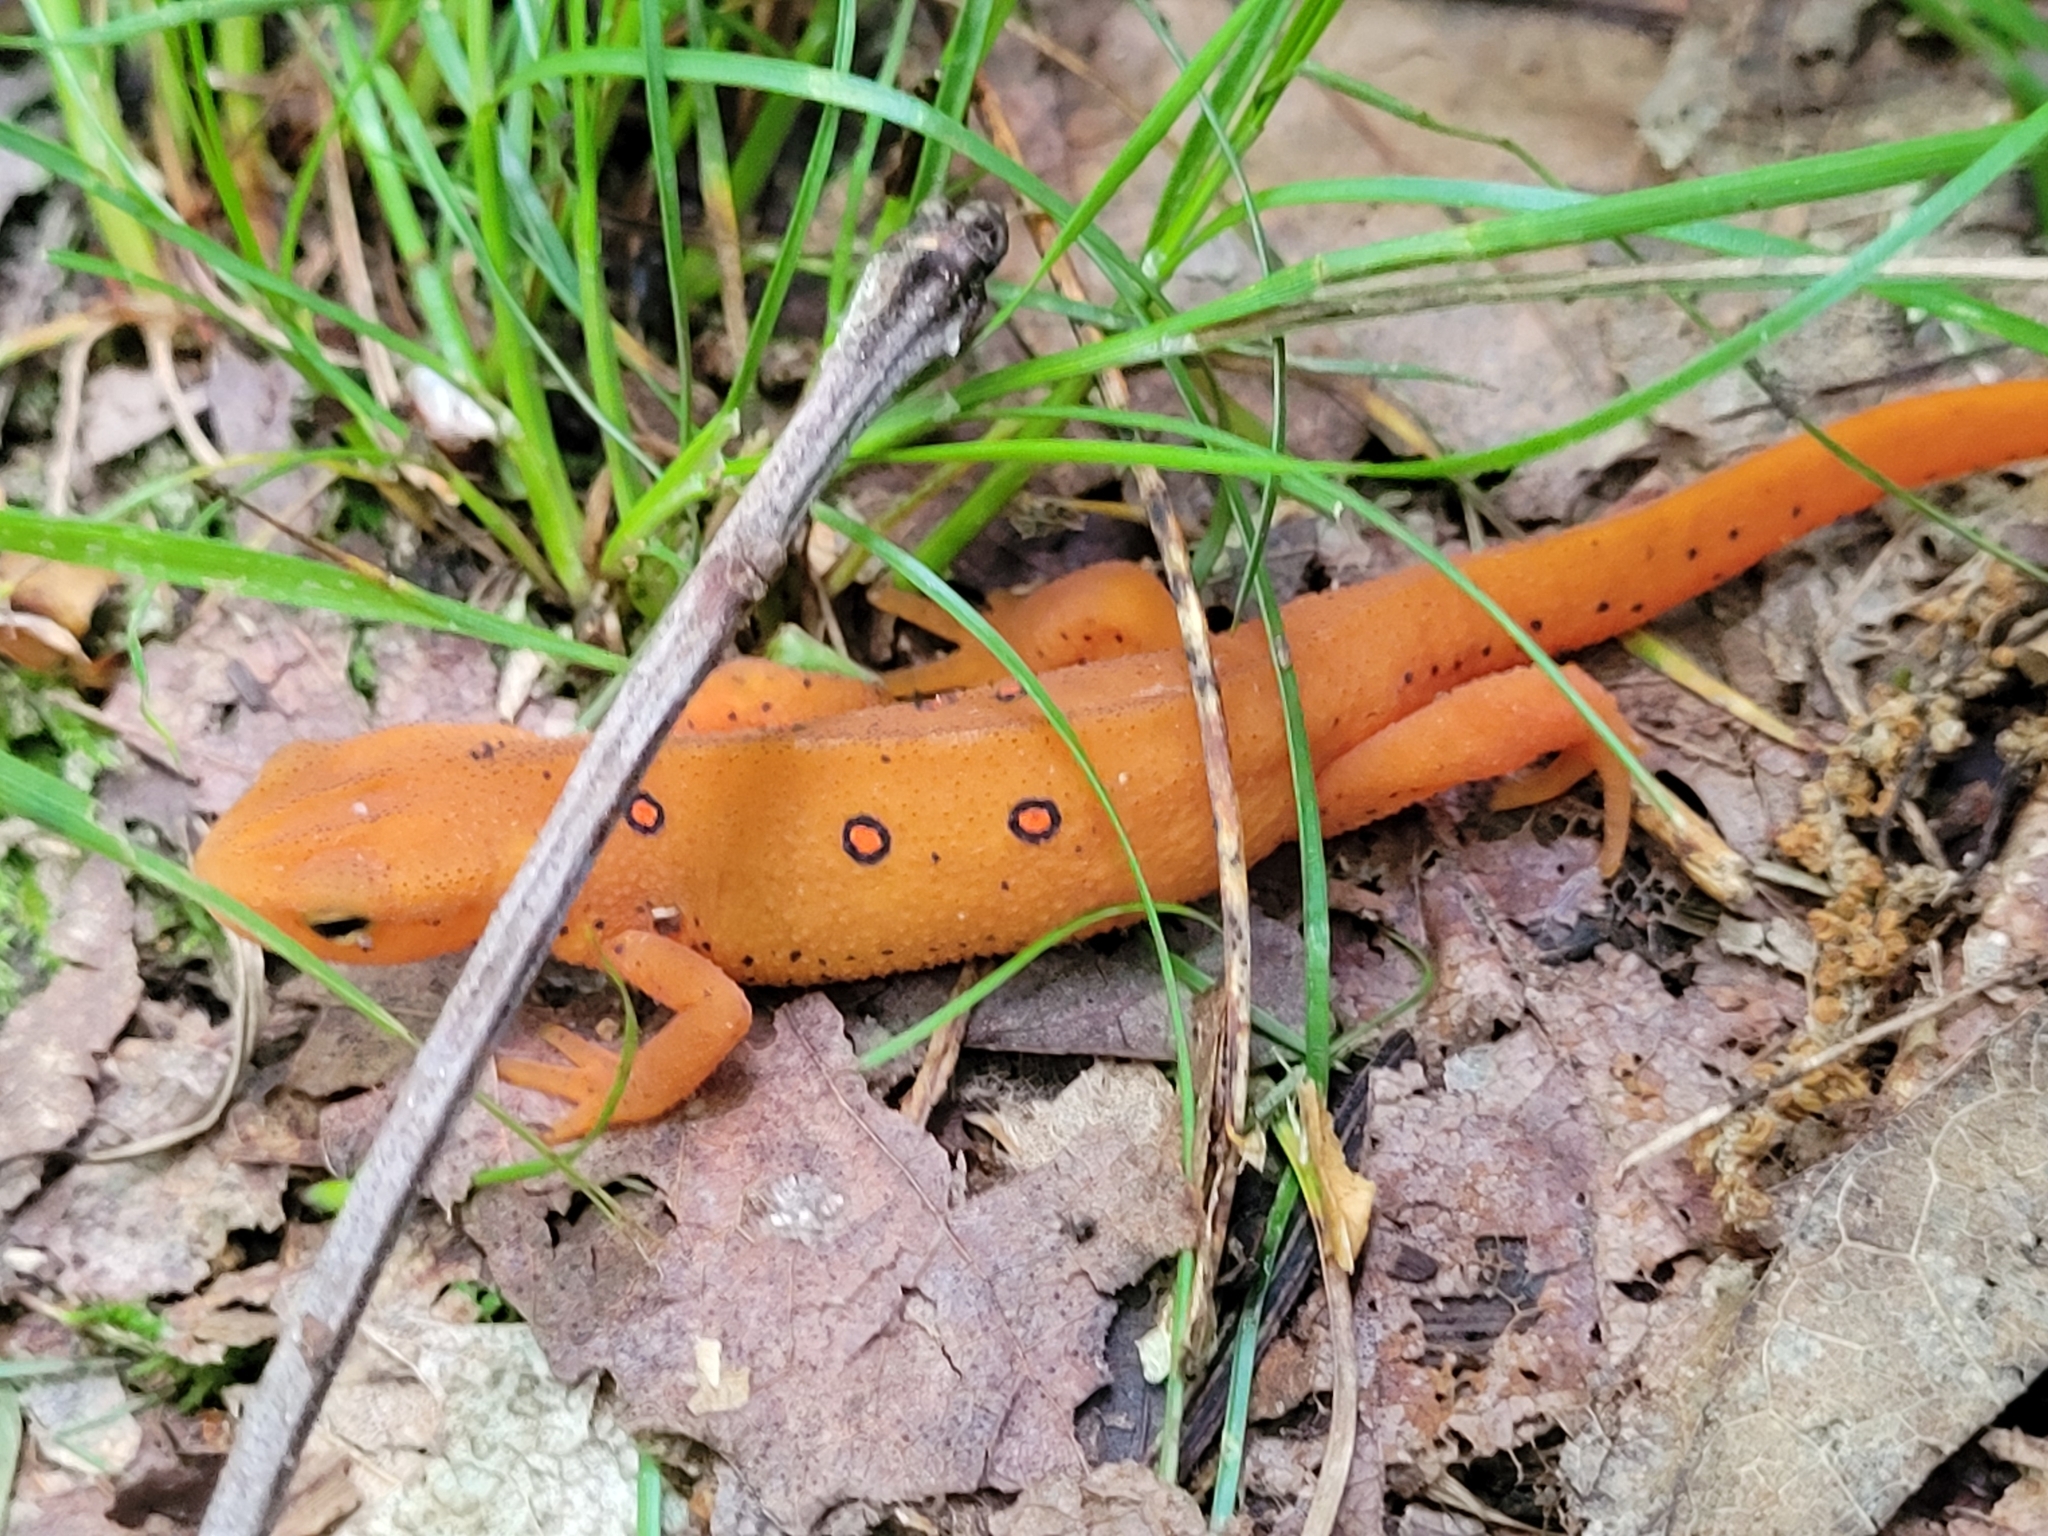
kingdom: Animalia
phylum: Chordata
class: Amphibia
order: Caudata
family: Salamandridae
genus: Notophthalmus
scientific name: Notophthalmus viridescens
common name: Eastern newt
